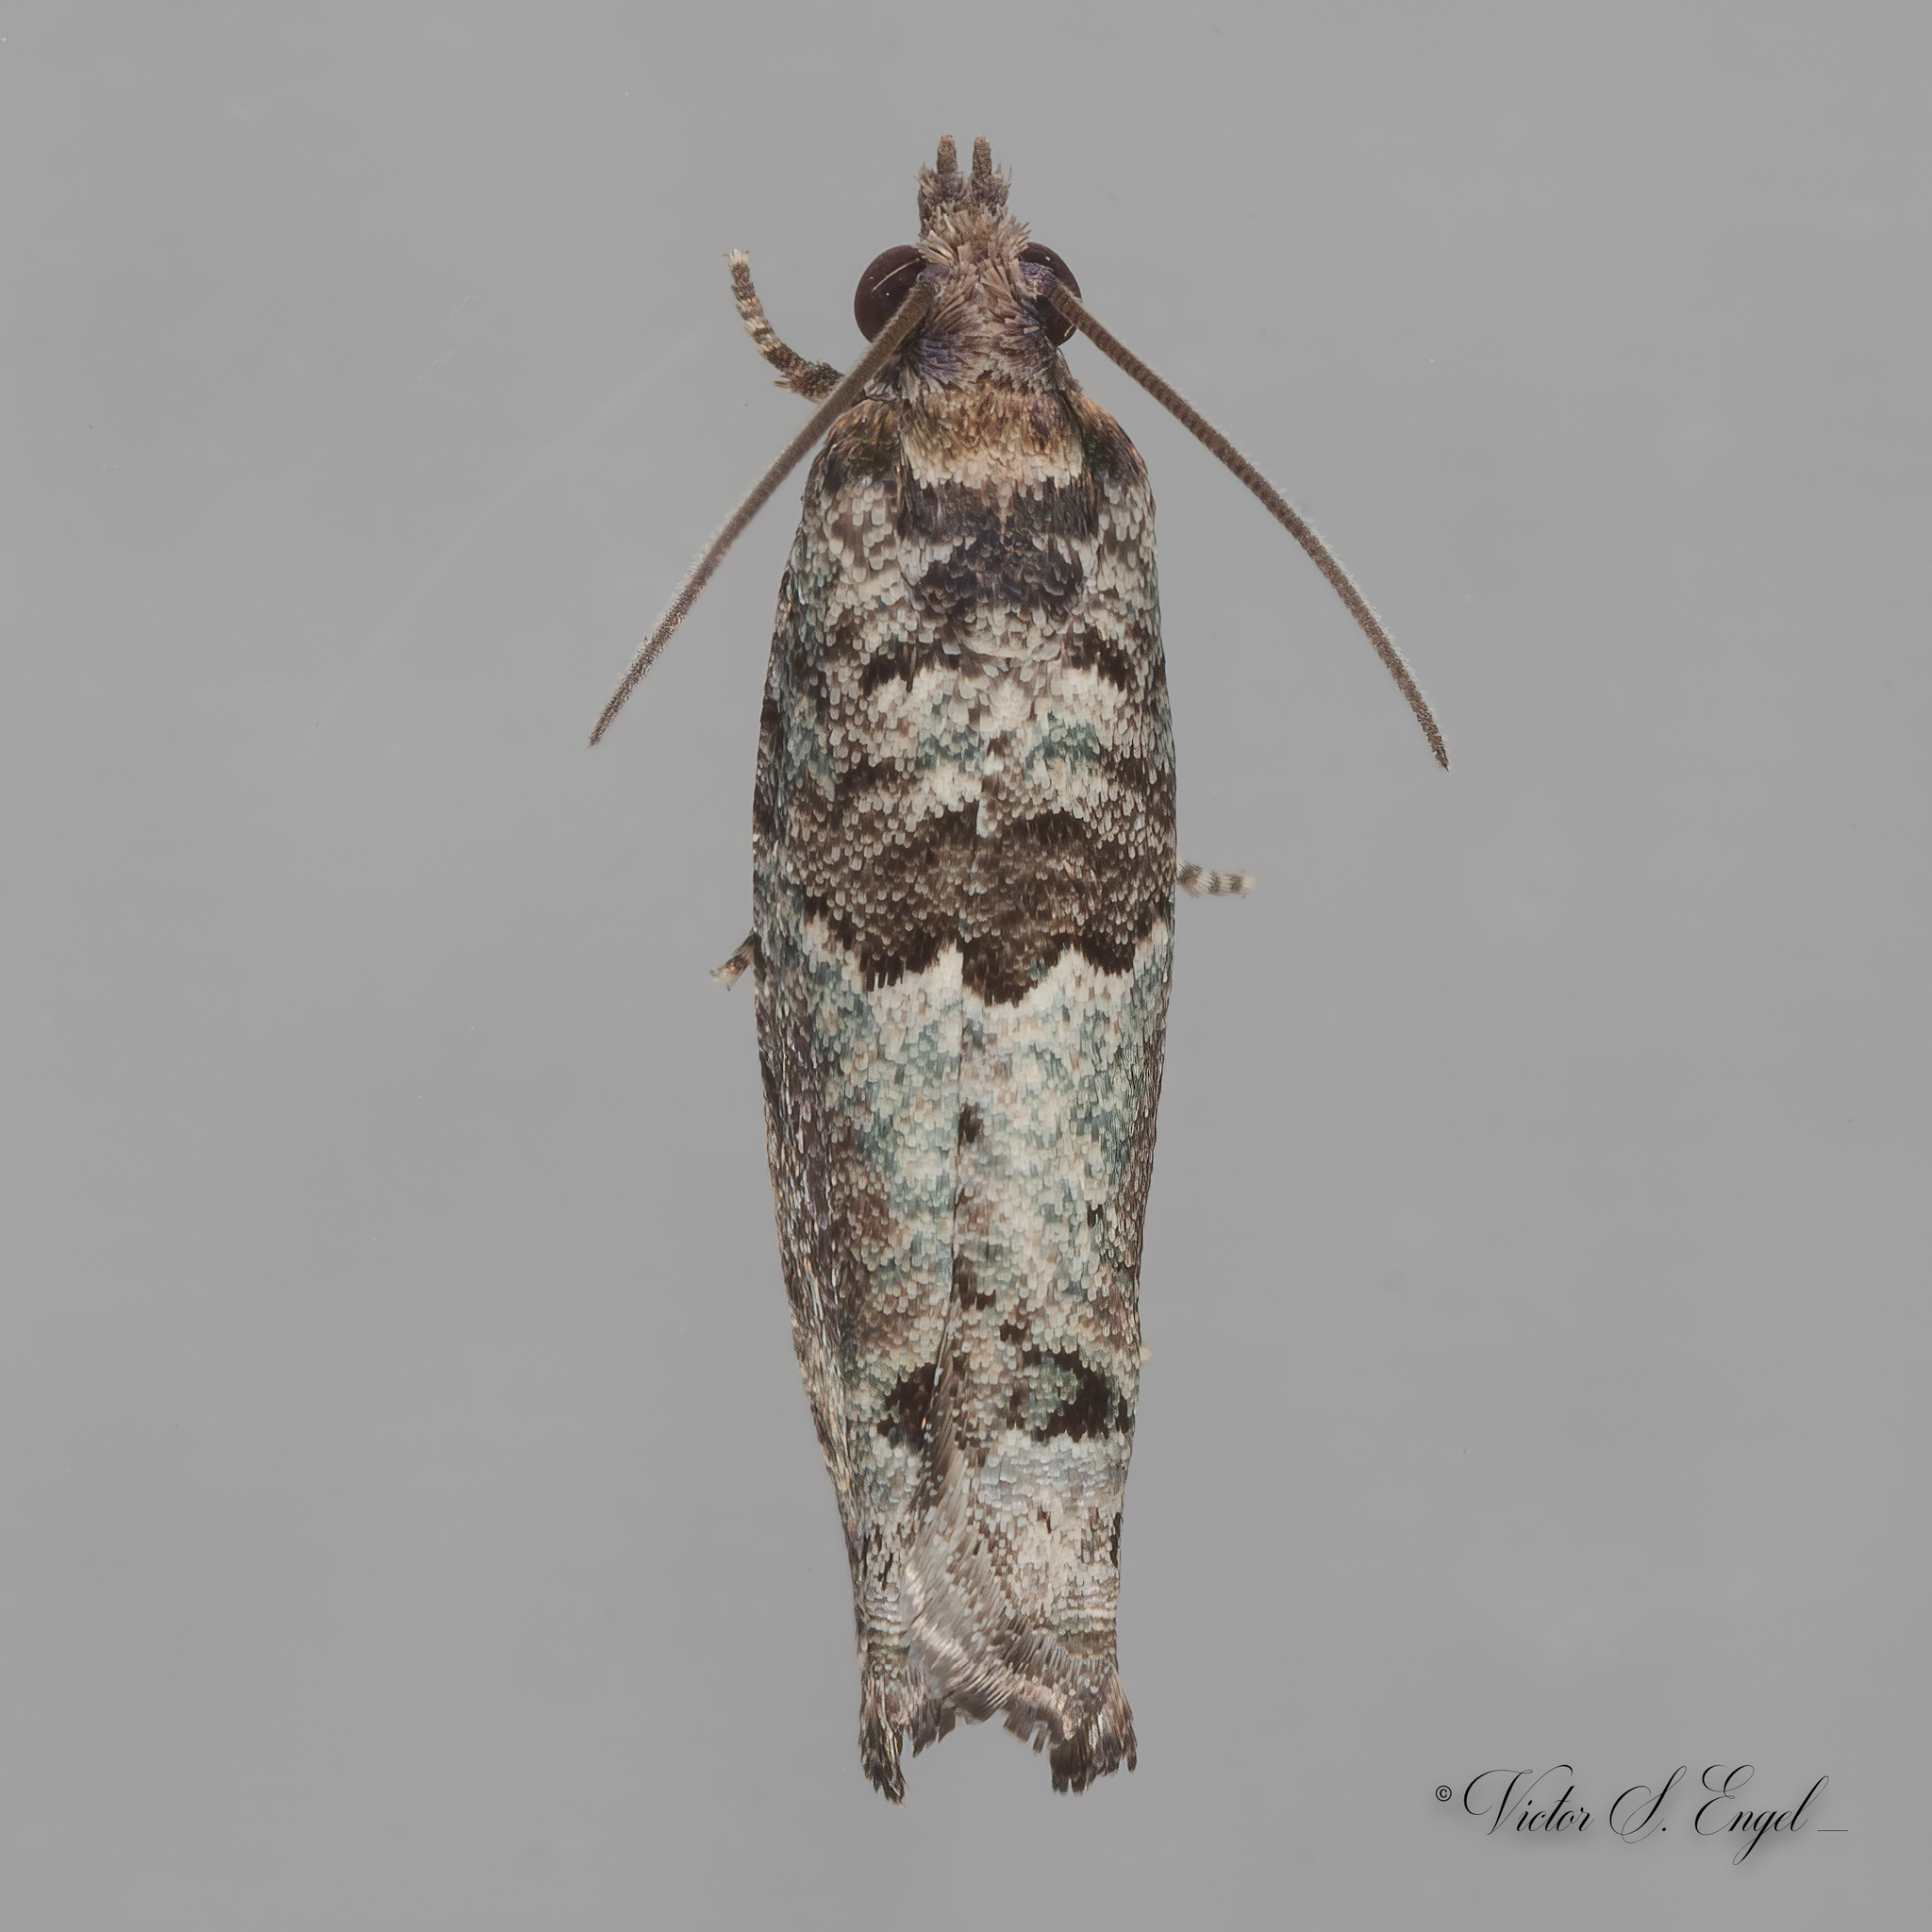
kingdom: Animalia
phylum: Arthropoda
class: Insecta
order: Lepidoptera
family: Tortricidae
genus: Pseudexentera
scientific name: Pseudexentera knudsoni
